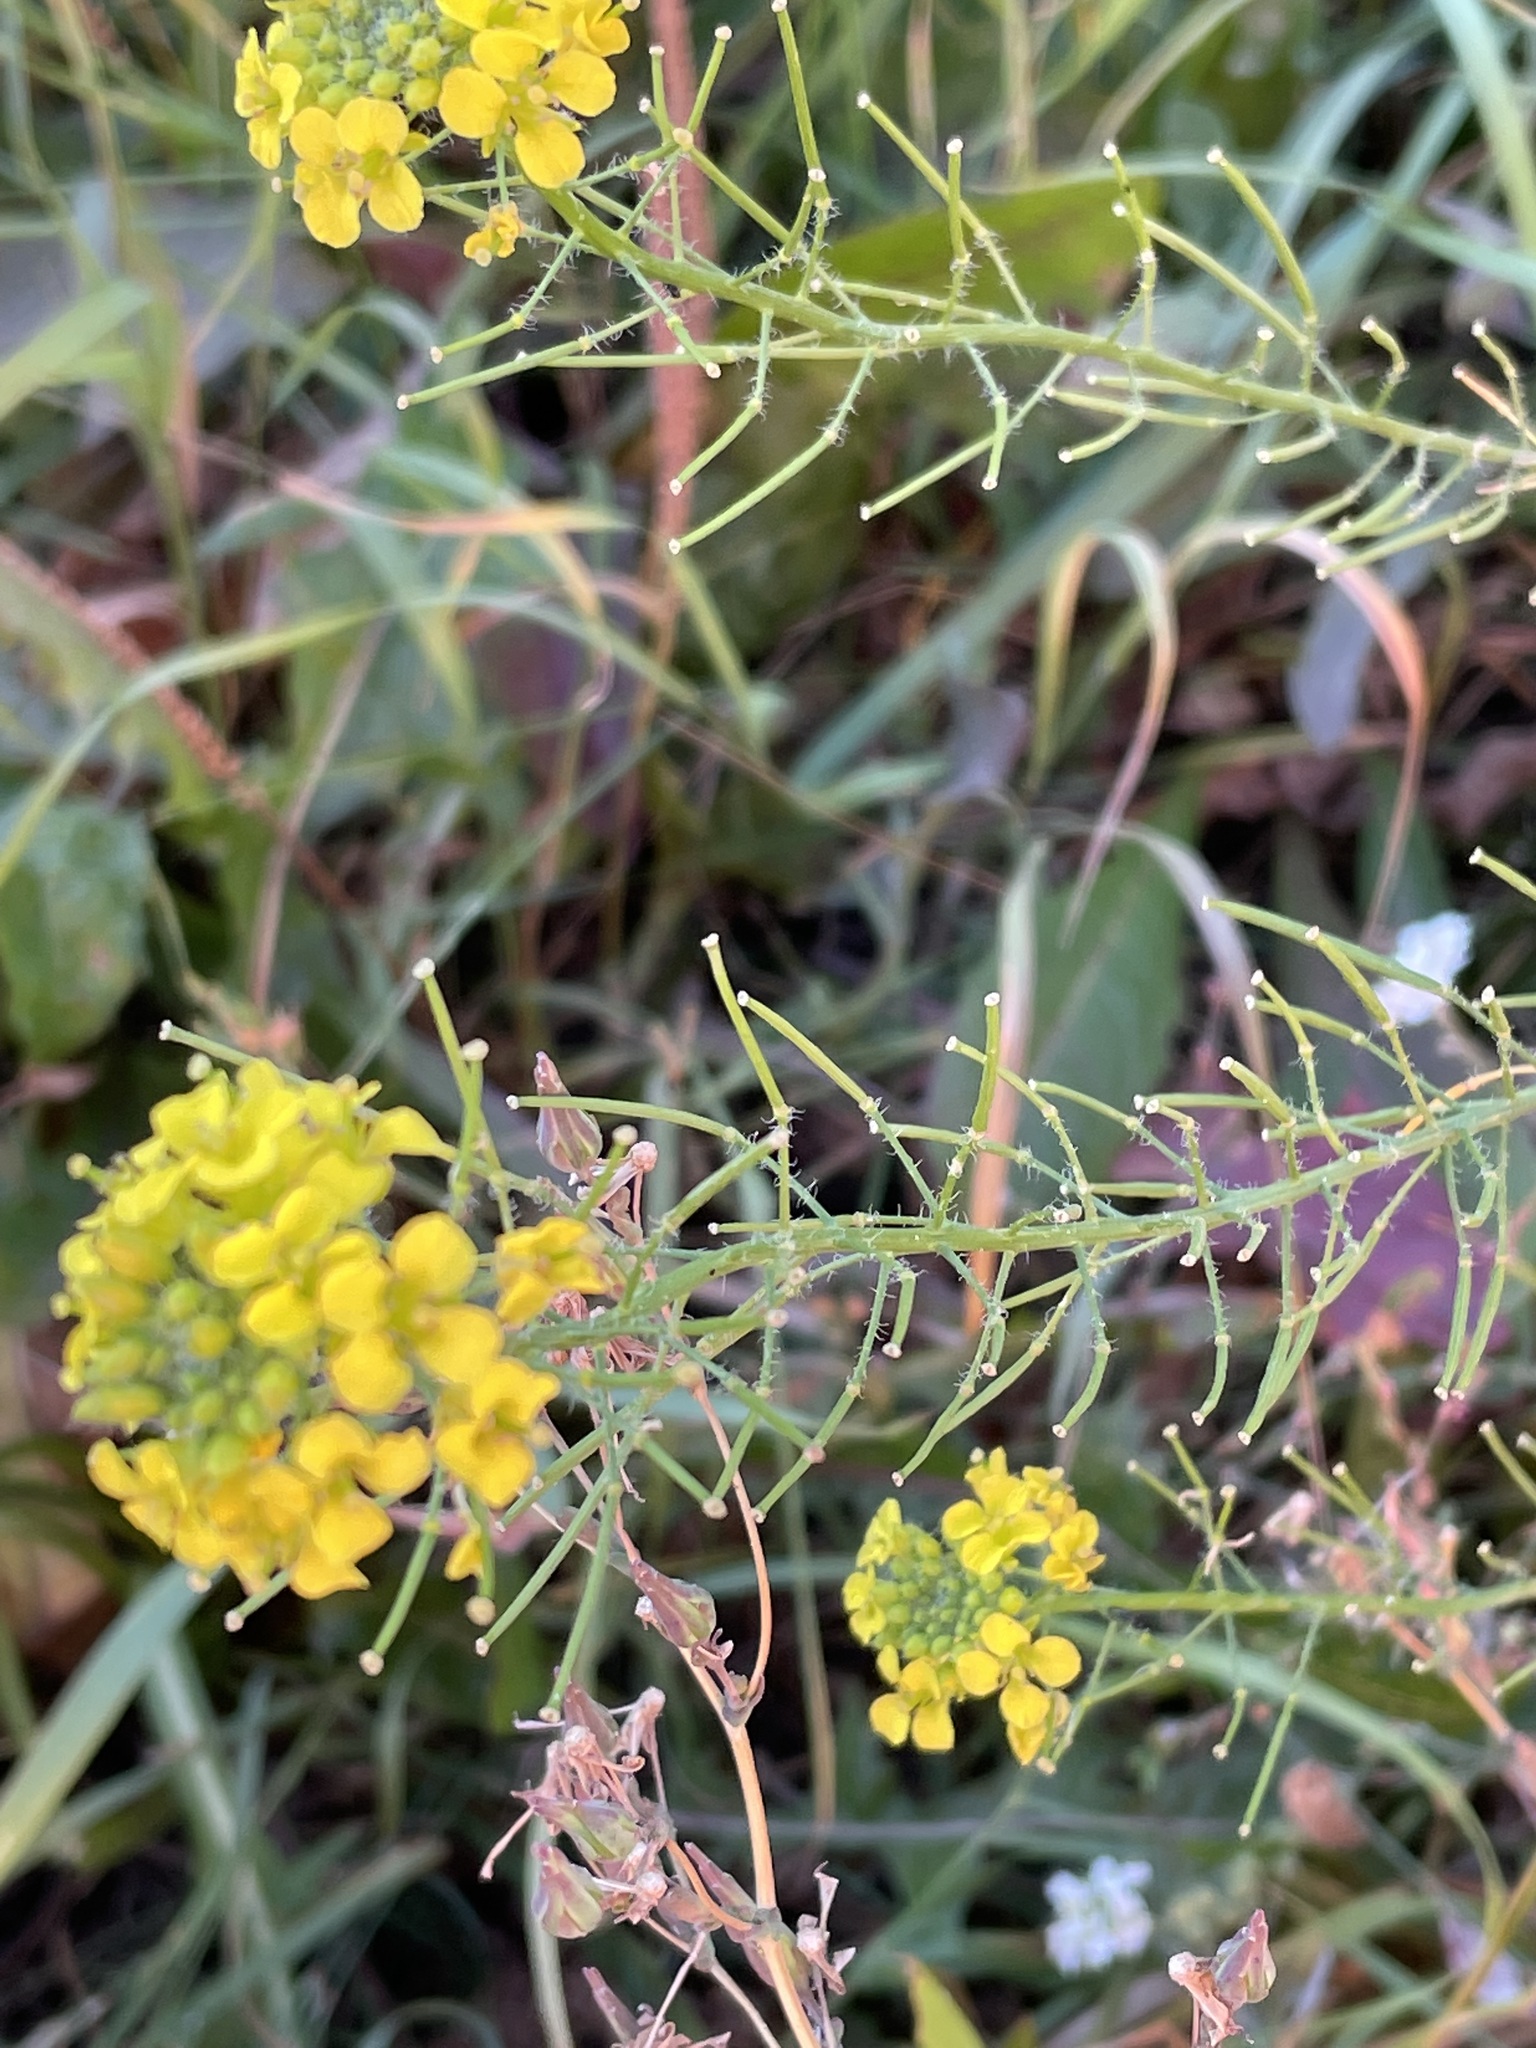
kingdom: Plantae
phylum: Tracheophyta
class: Magnoliopsida
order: Brassicales
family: Brassicaceae
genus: Sisymbrium
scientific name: Sisymbrium loeselii
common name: False london-rocket
